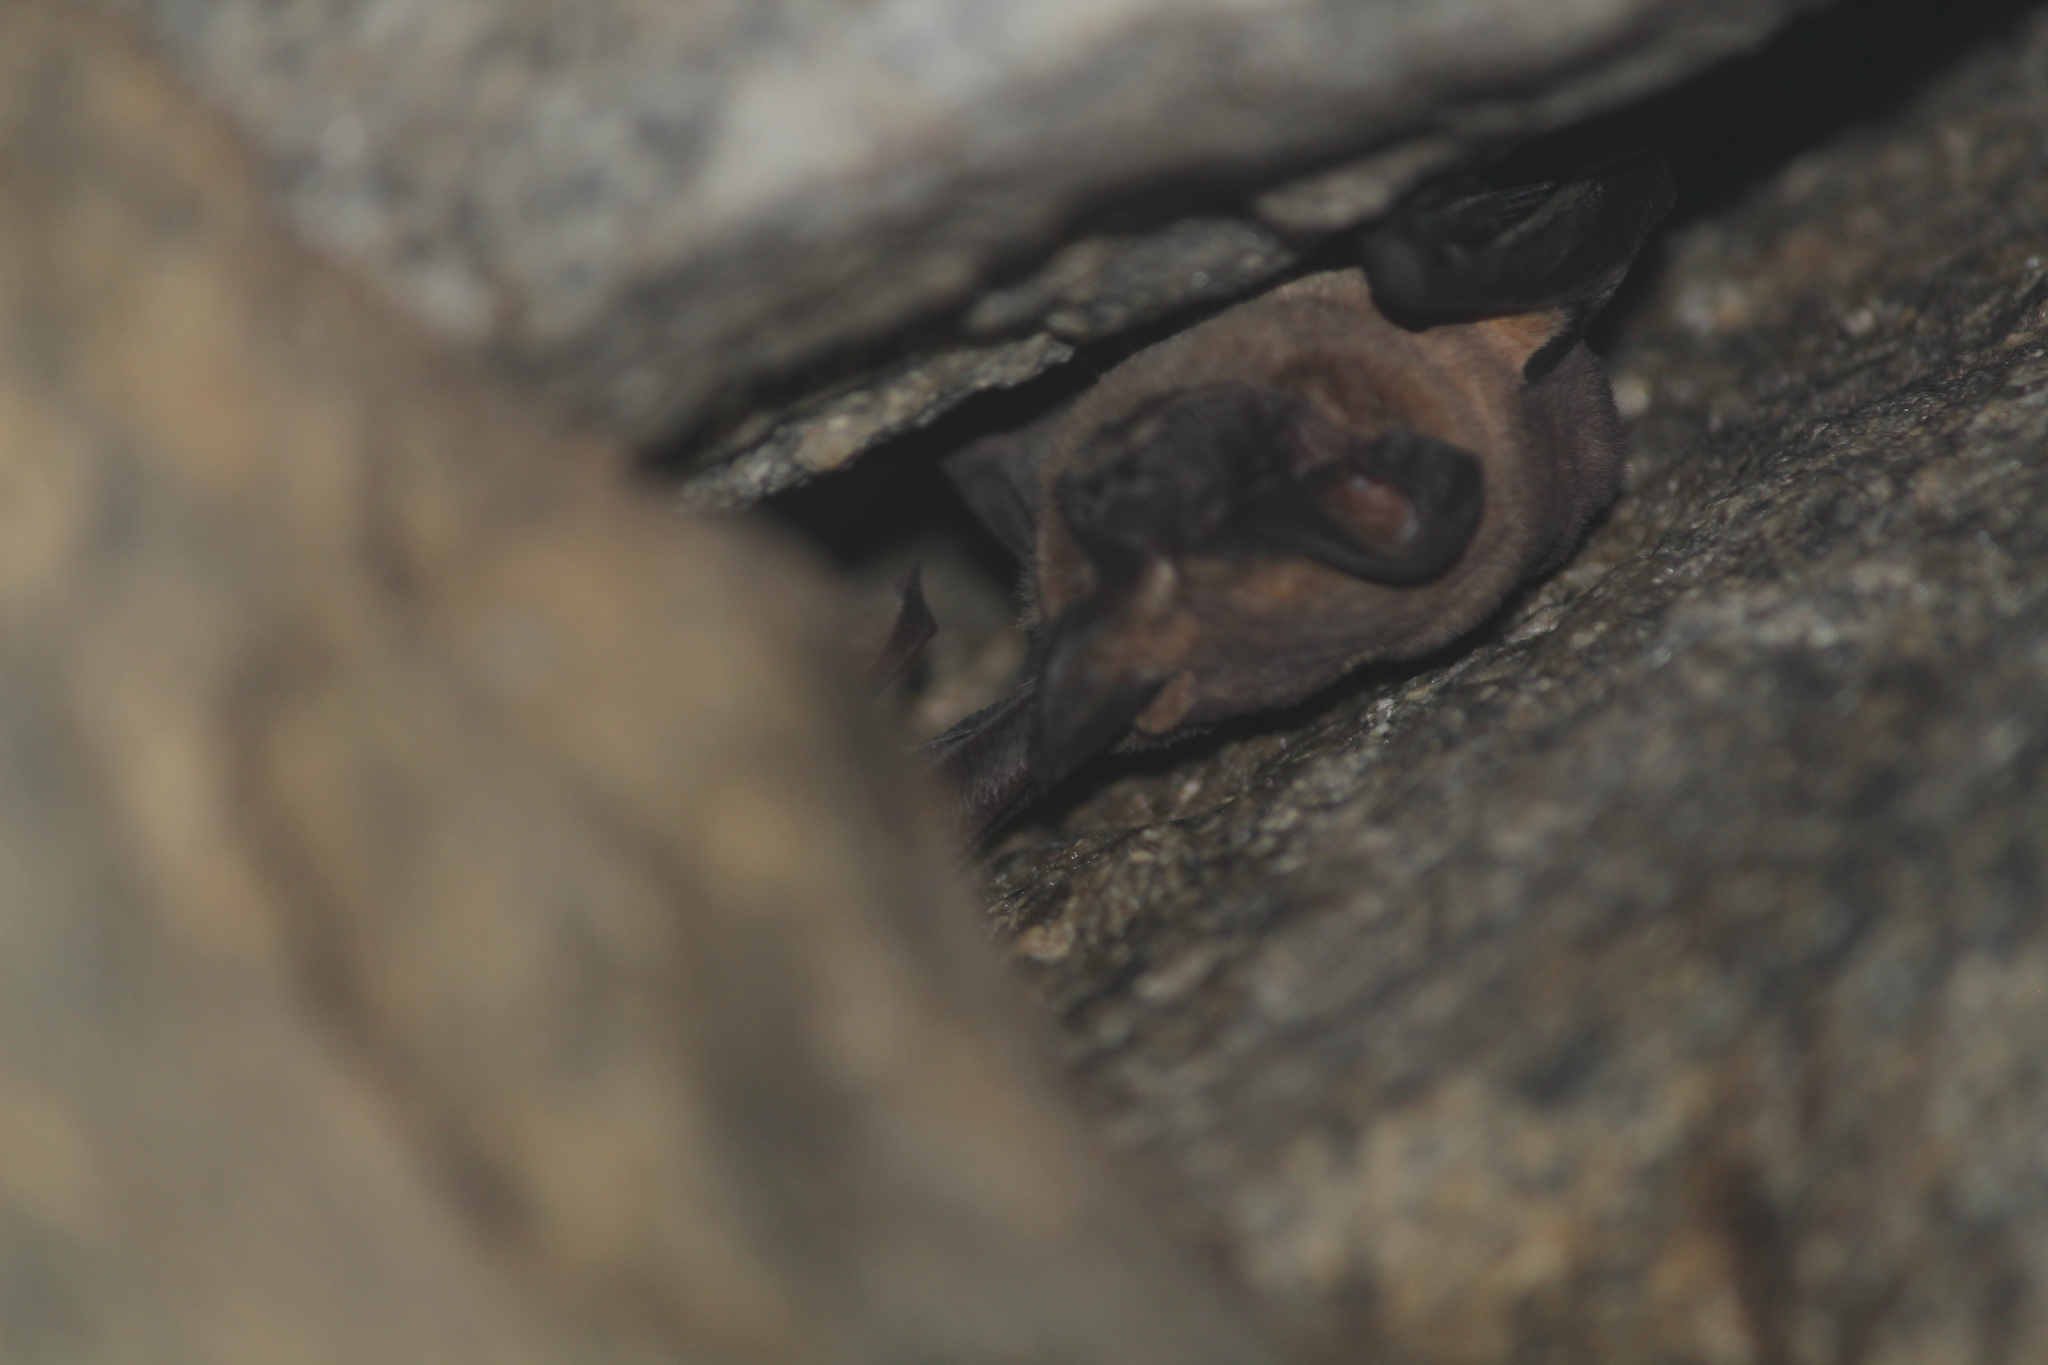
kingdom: Animalia
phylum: Chordata
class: Mammalia
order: Chiroptera
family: Molossidae
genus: Tadarida
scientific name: Tadarida aegyptiaca
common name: Egyptian free-tailed bat
